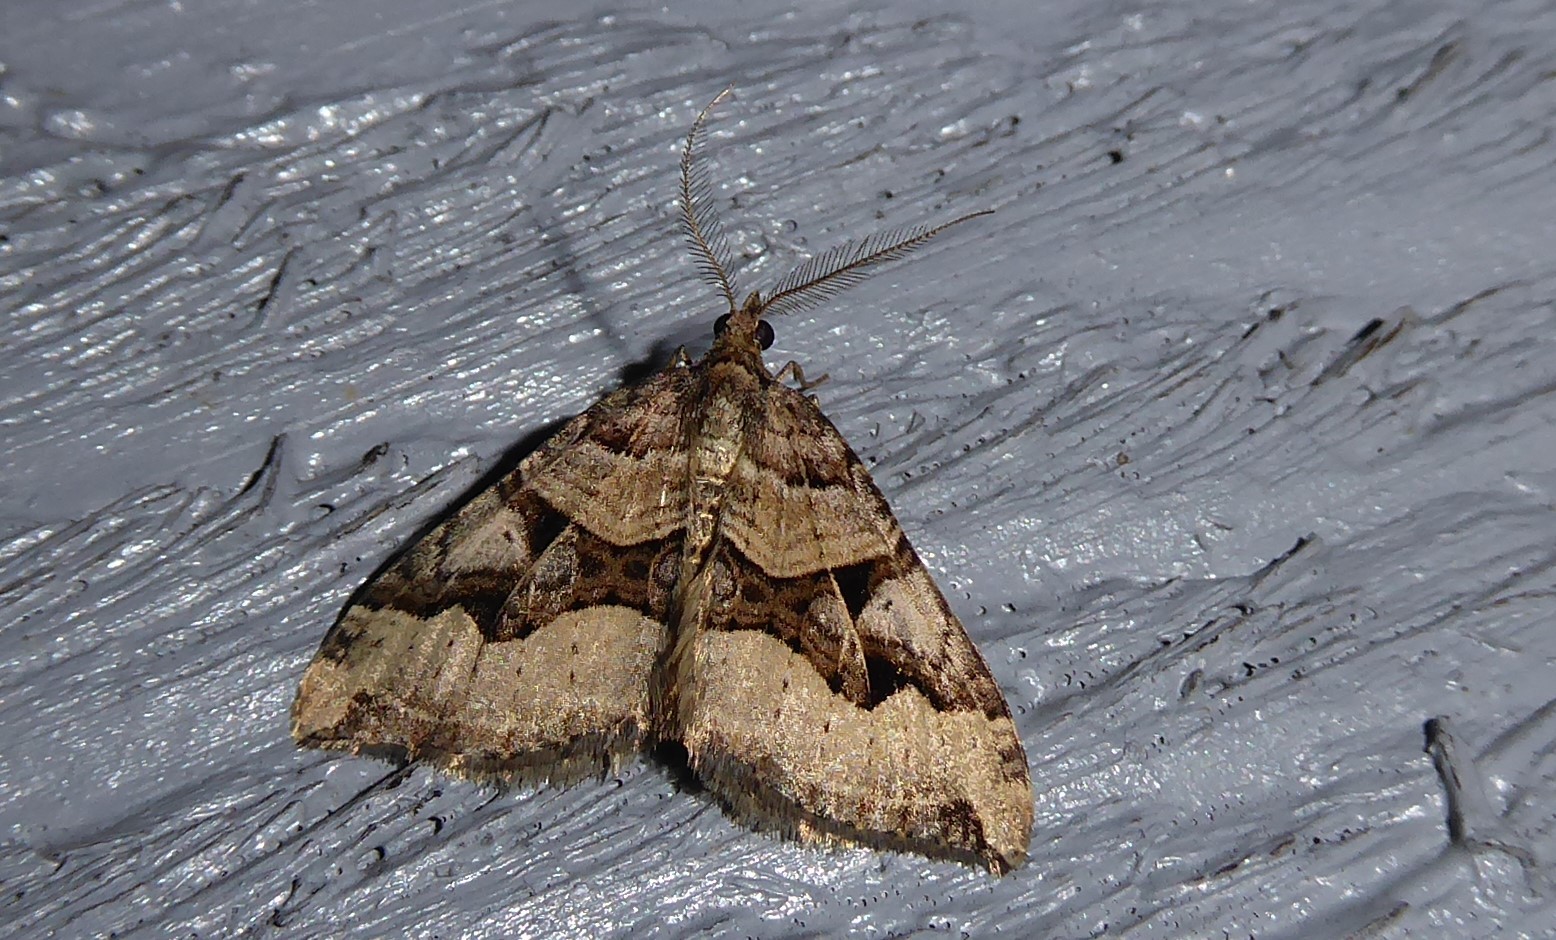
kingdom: Animalia
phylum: Arthropoda
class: Insecta
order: Lepidoptera
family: Geometridae
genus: Xanthorhoe
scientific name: Xanthorhoe semifissata
